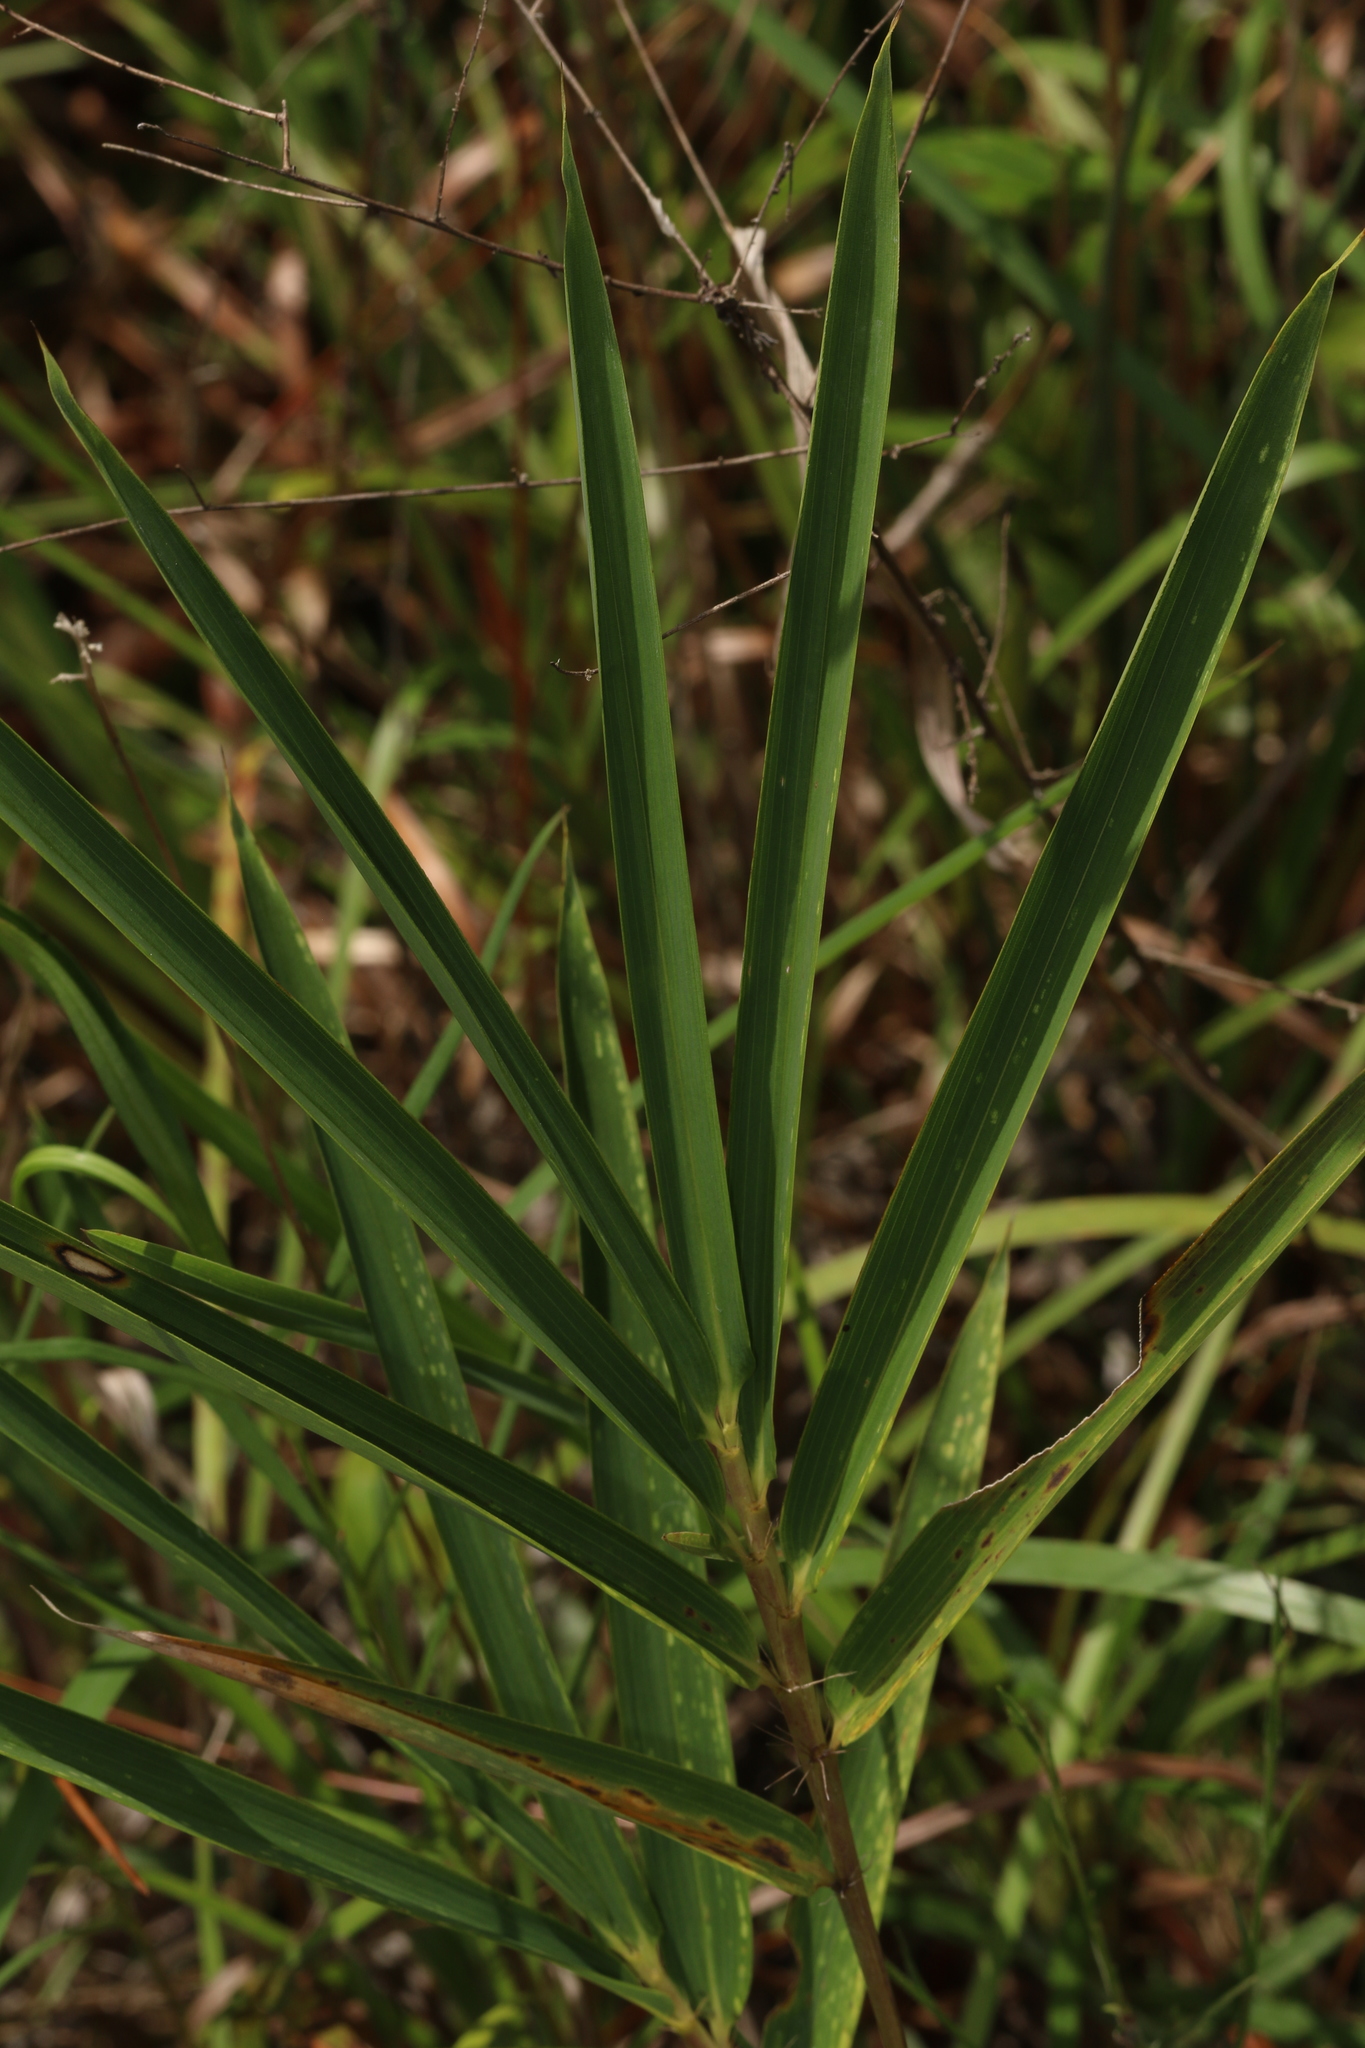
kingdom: Plantae
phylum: Tracheophyta
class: Liliopsida
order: Poales
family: Poaceae
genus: Arundinaria
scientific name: Arundinaria tecta
